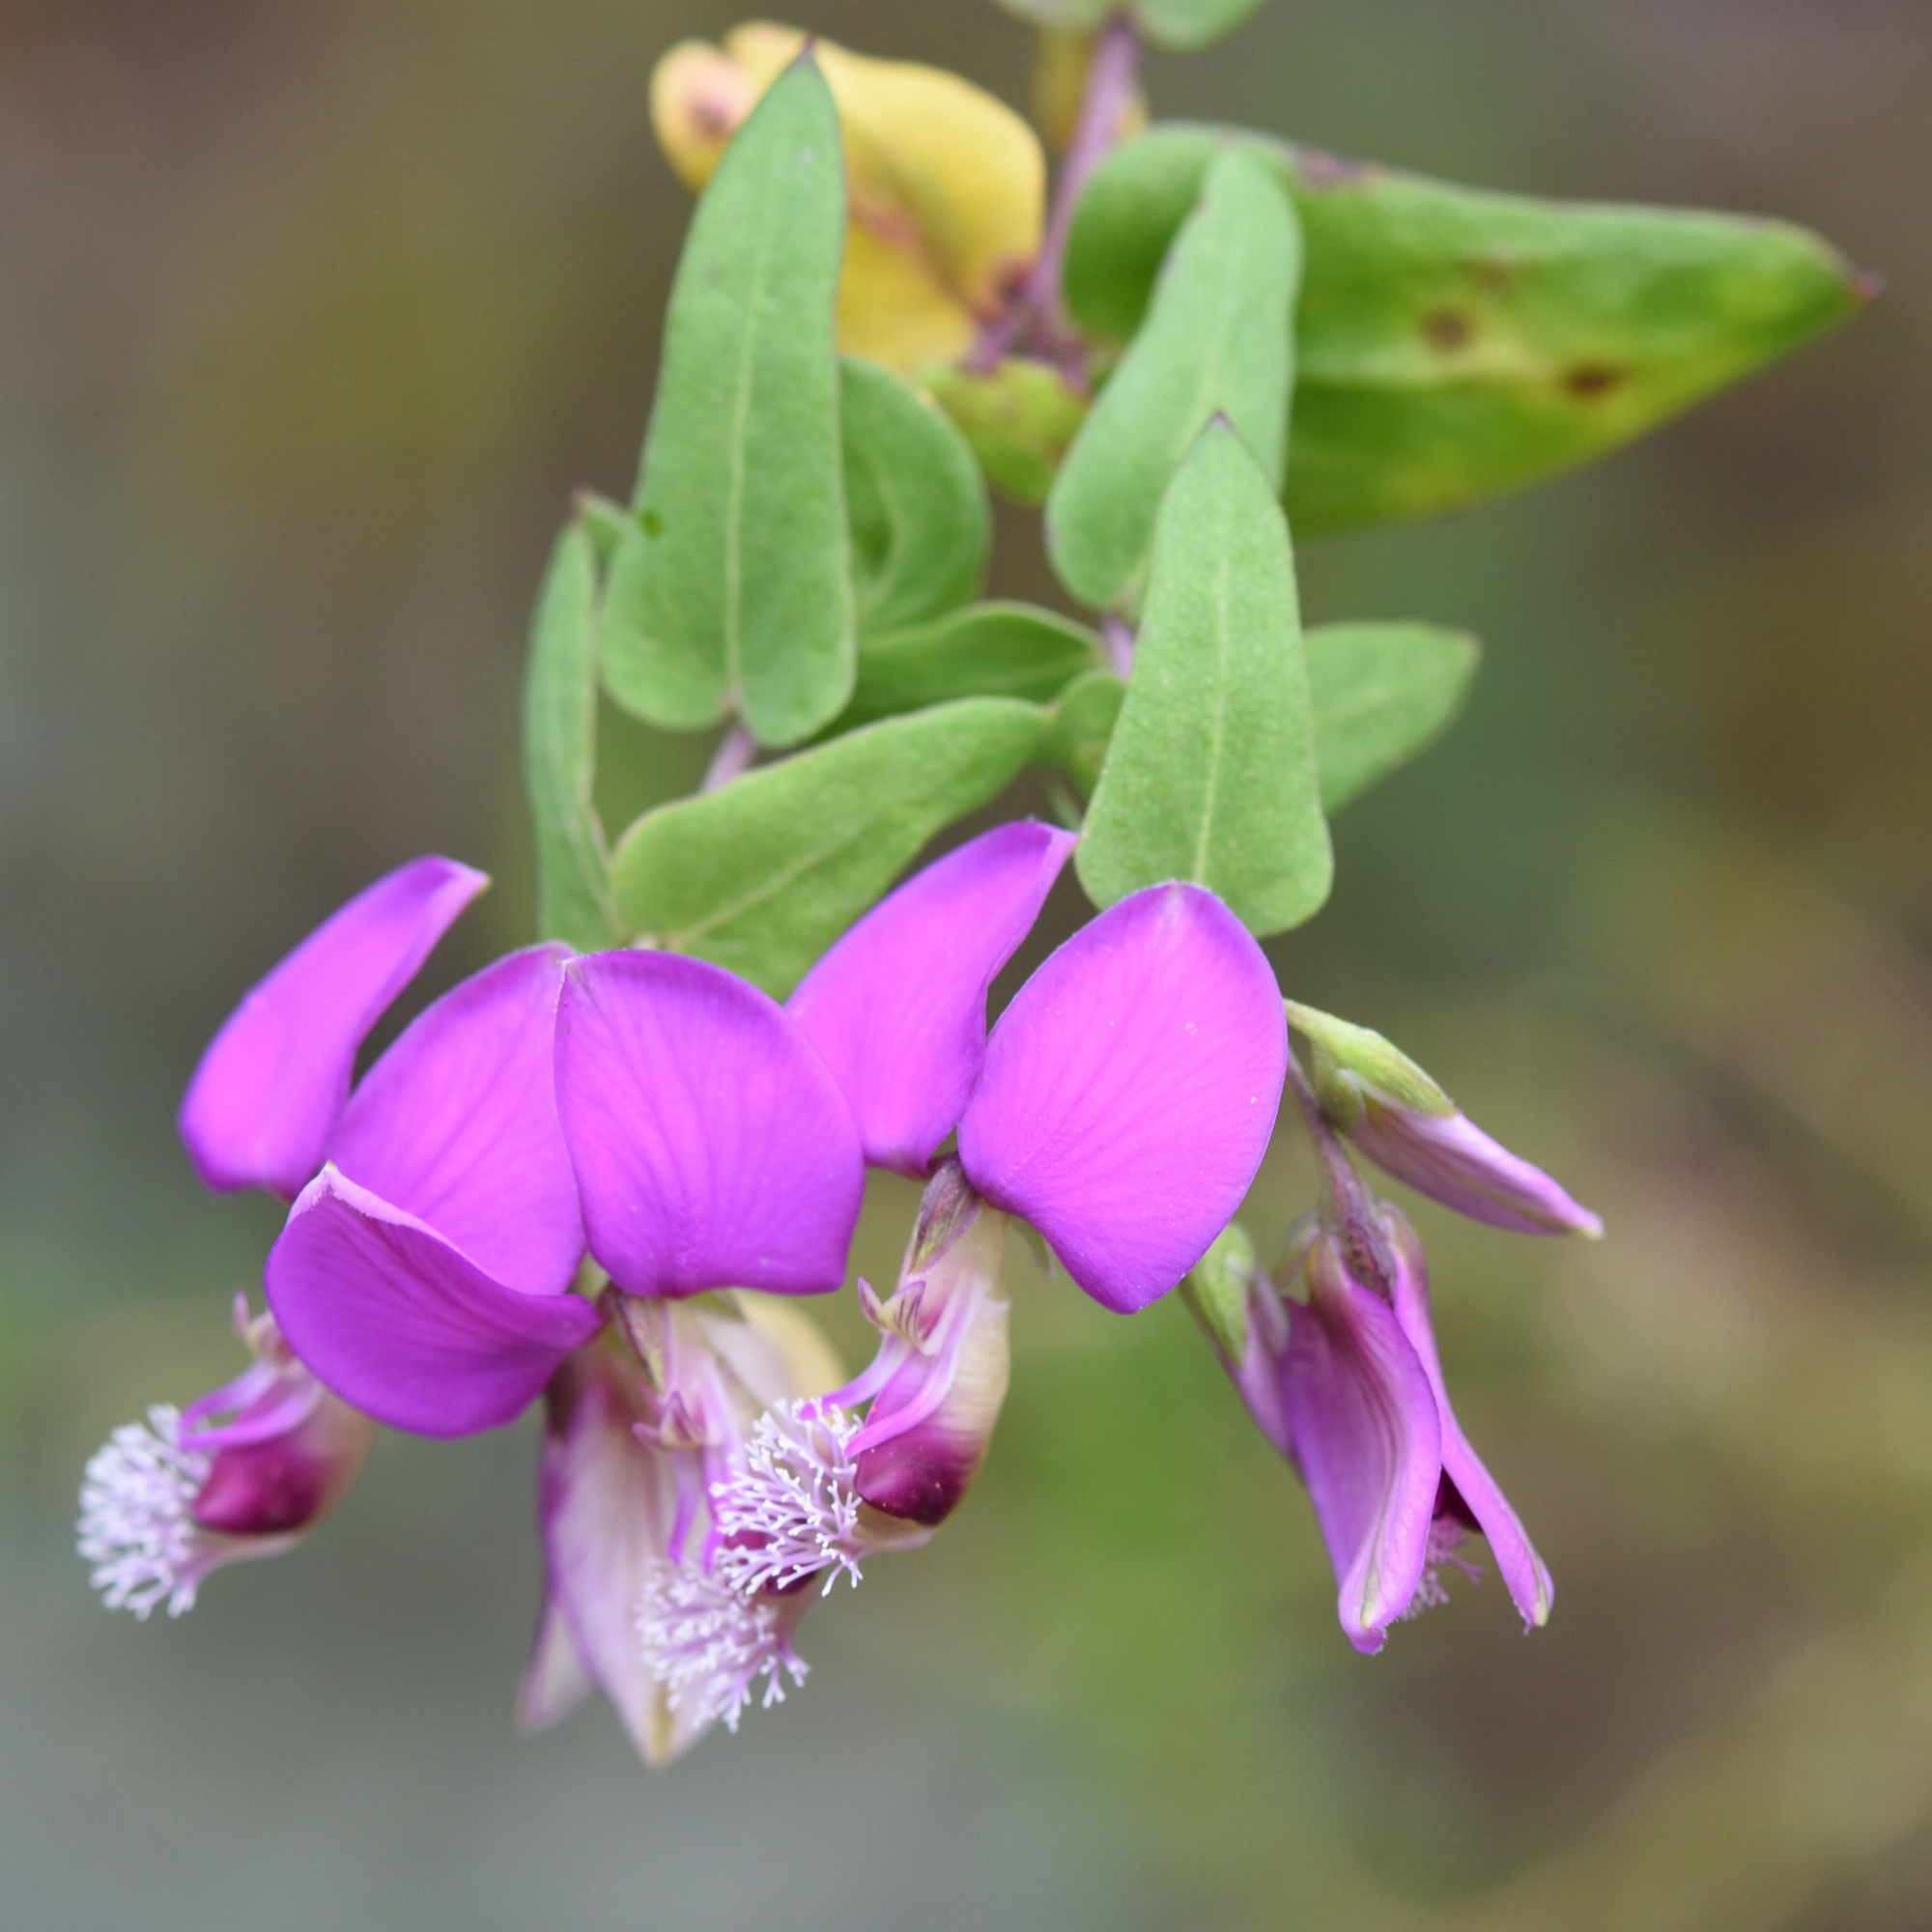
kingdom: Plantae
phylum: Tracheophyta
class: Magnoliopsida
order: Fabales
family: Polygalaceae
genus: Polygala
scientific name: Polygala fruticosa
